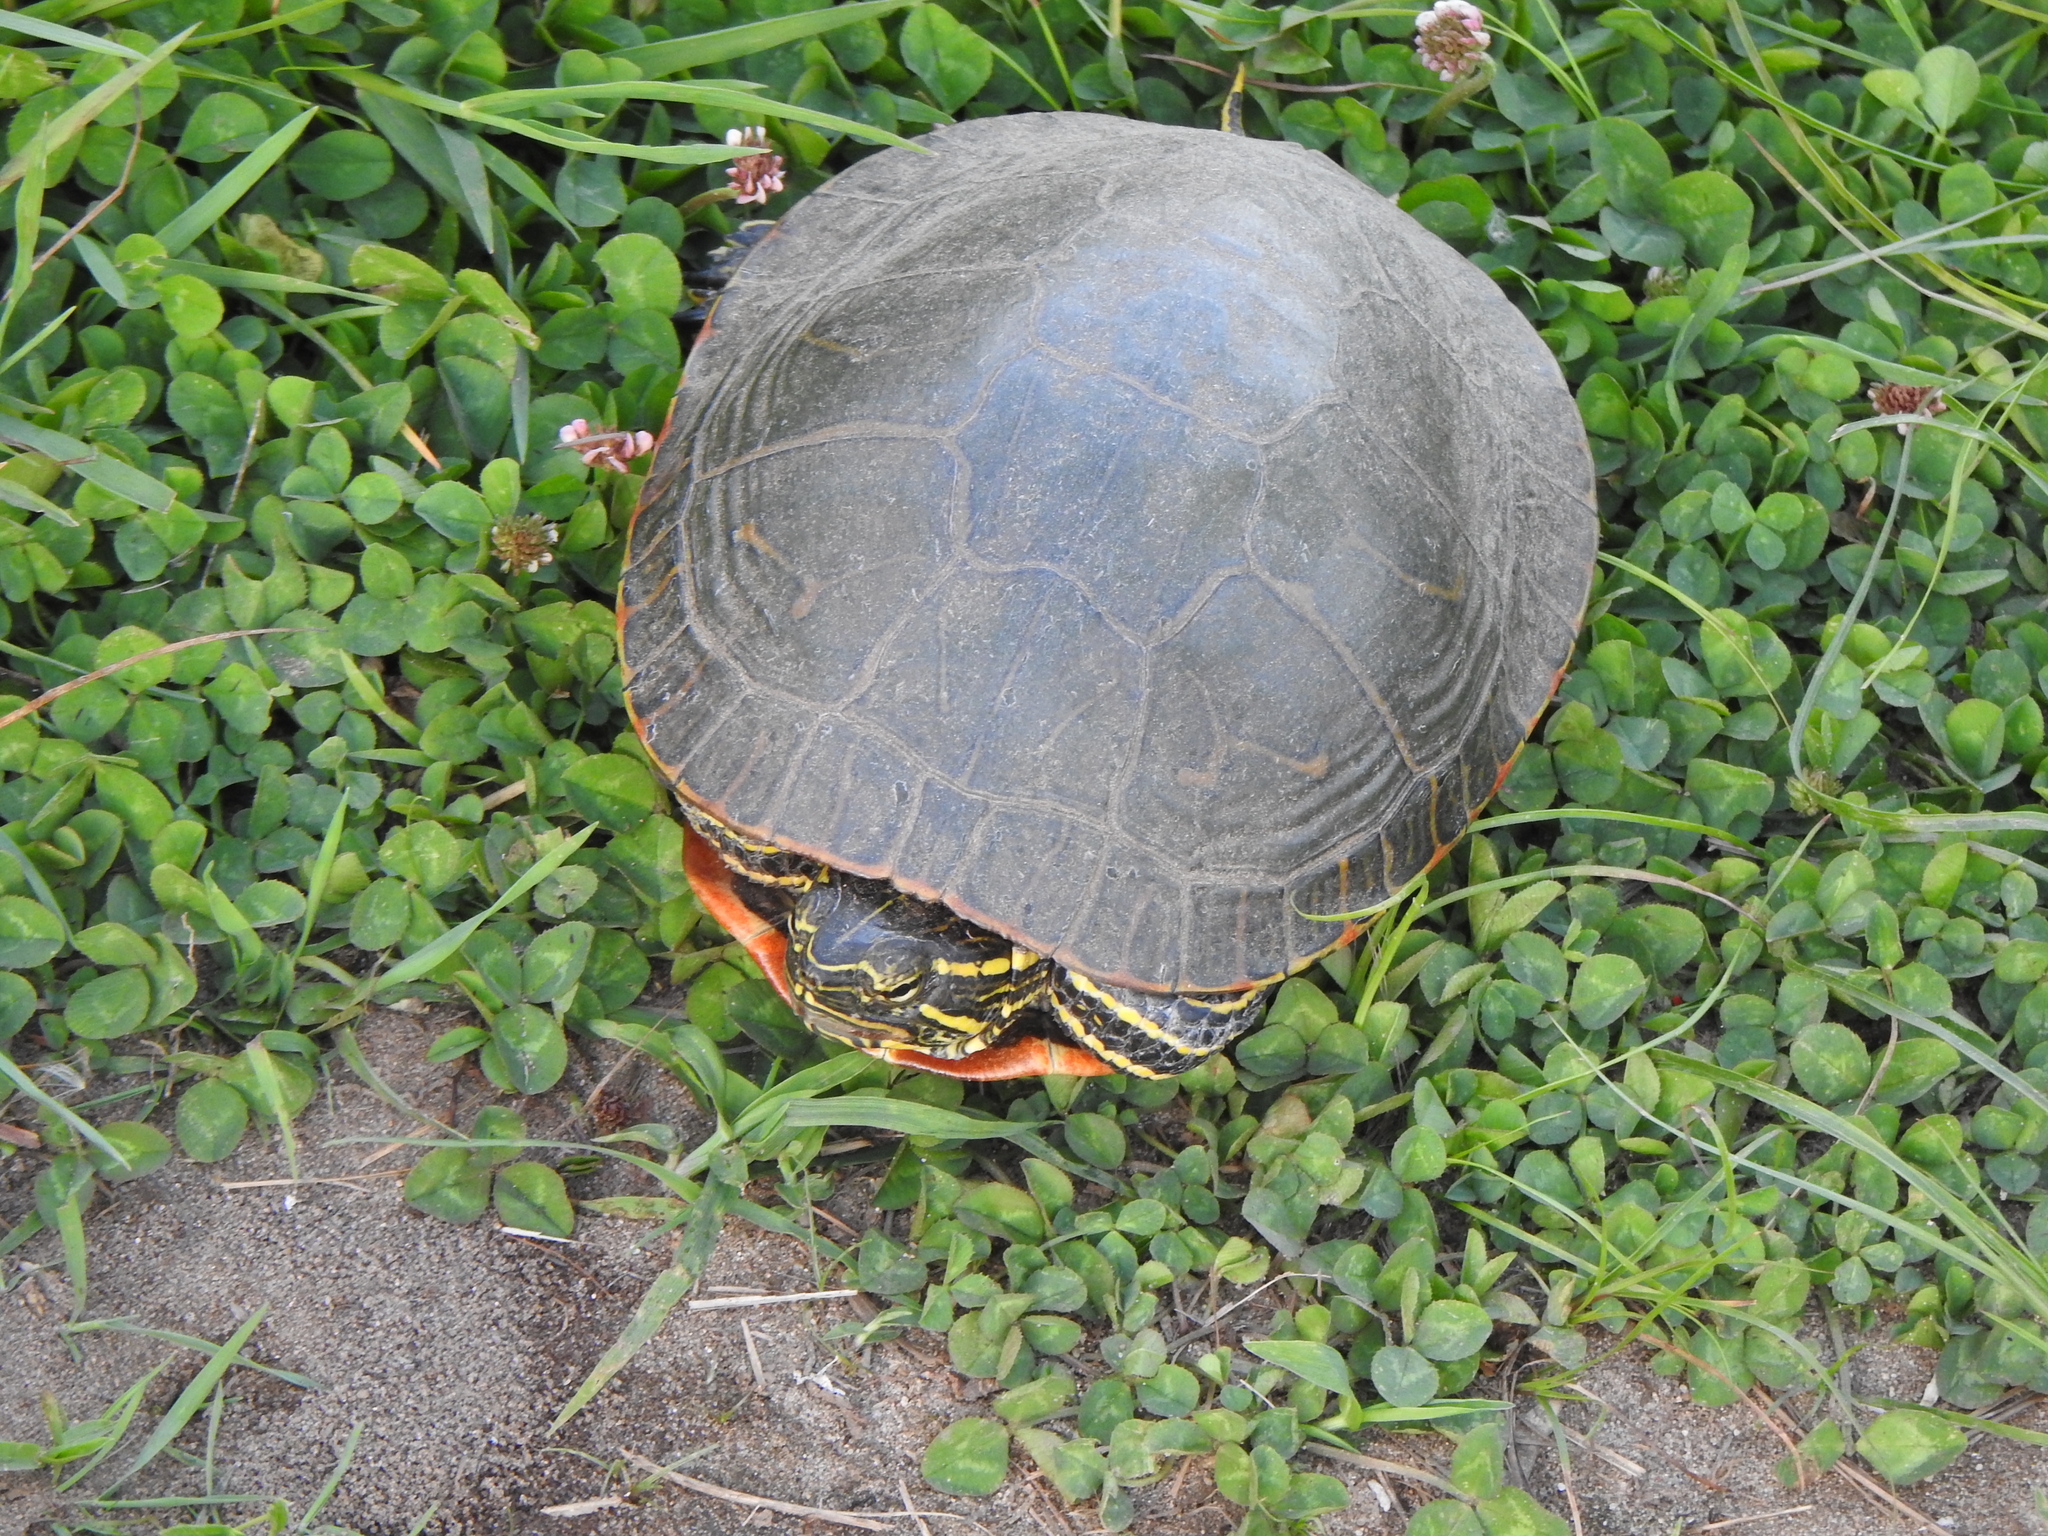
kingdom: Animalia
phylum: Chordata
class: Testudines
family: Emydidae
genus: Chrysemys
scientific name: Chrysemys picta
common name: Painted turtle
